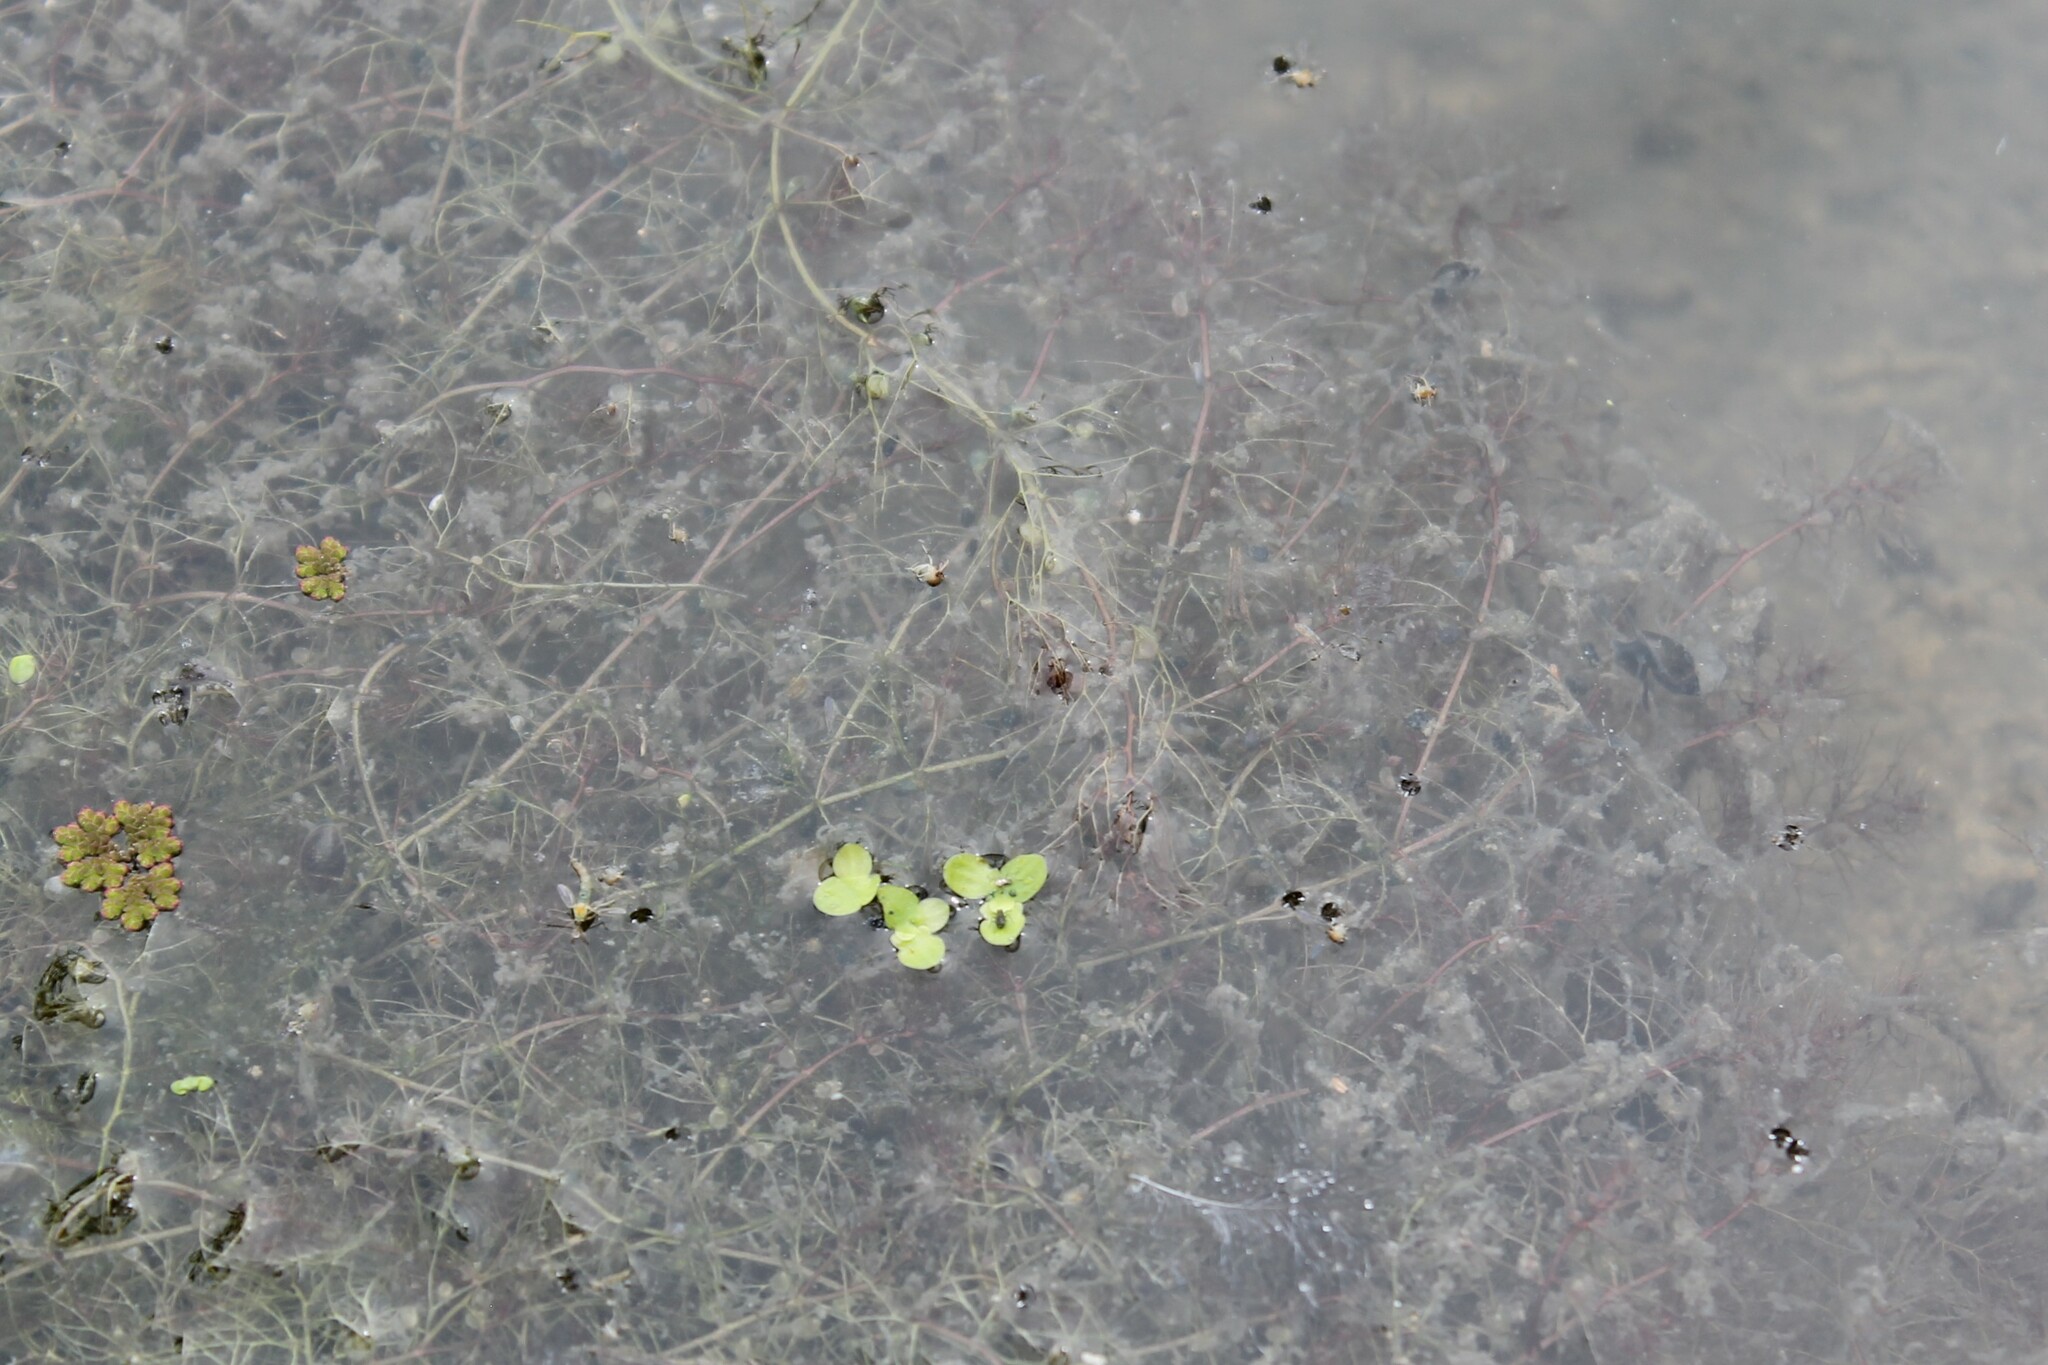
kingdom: Plantae
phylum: Tracheophyta
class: Magnoliopsida
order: Lamiales
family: Lentibulariaceae
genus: Utricularia
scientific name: Utricularia gibba
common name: Humped bladderwort
